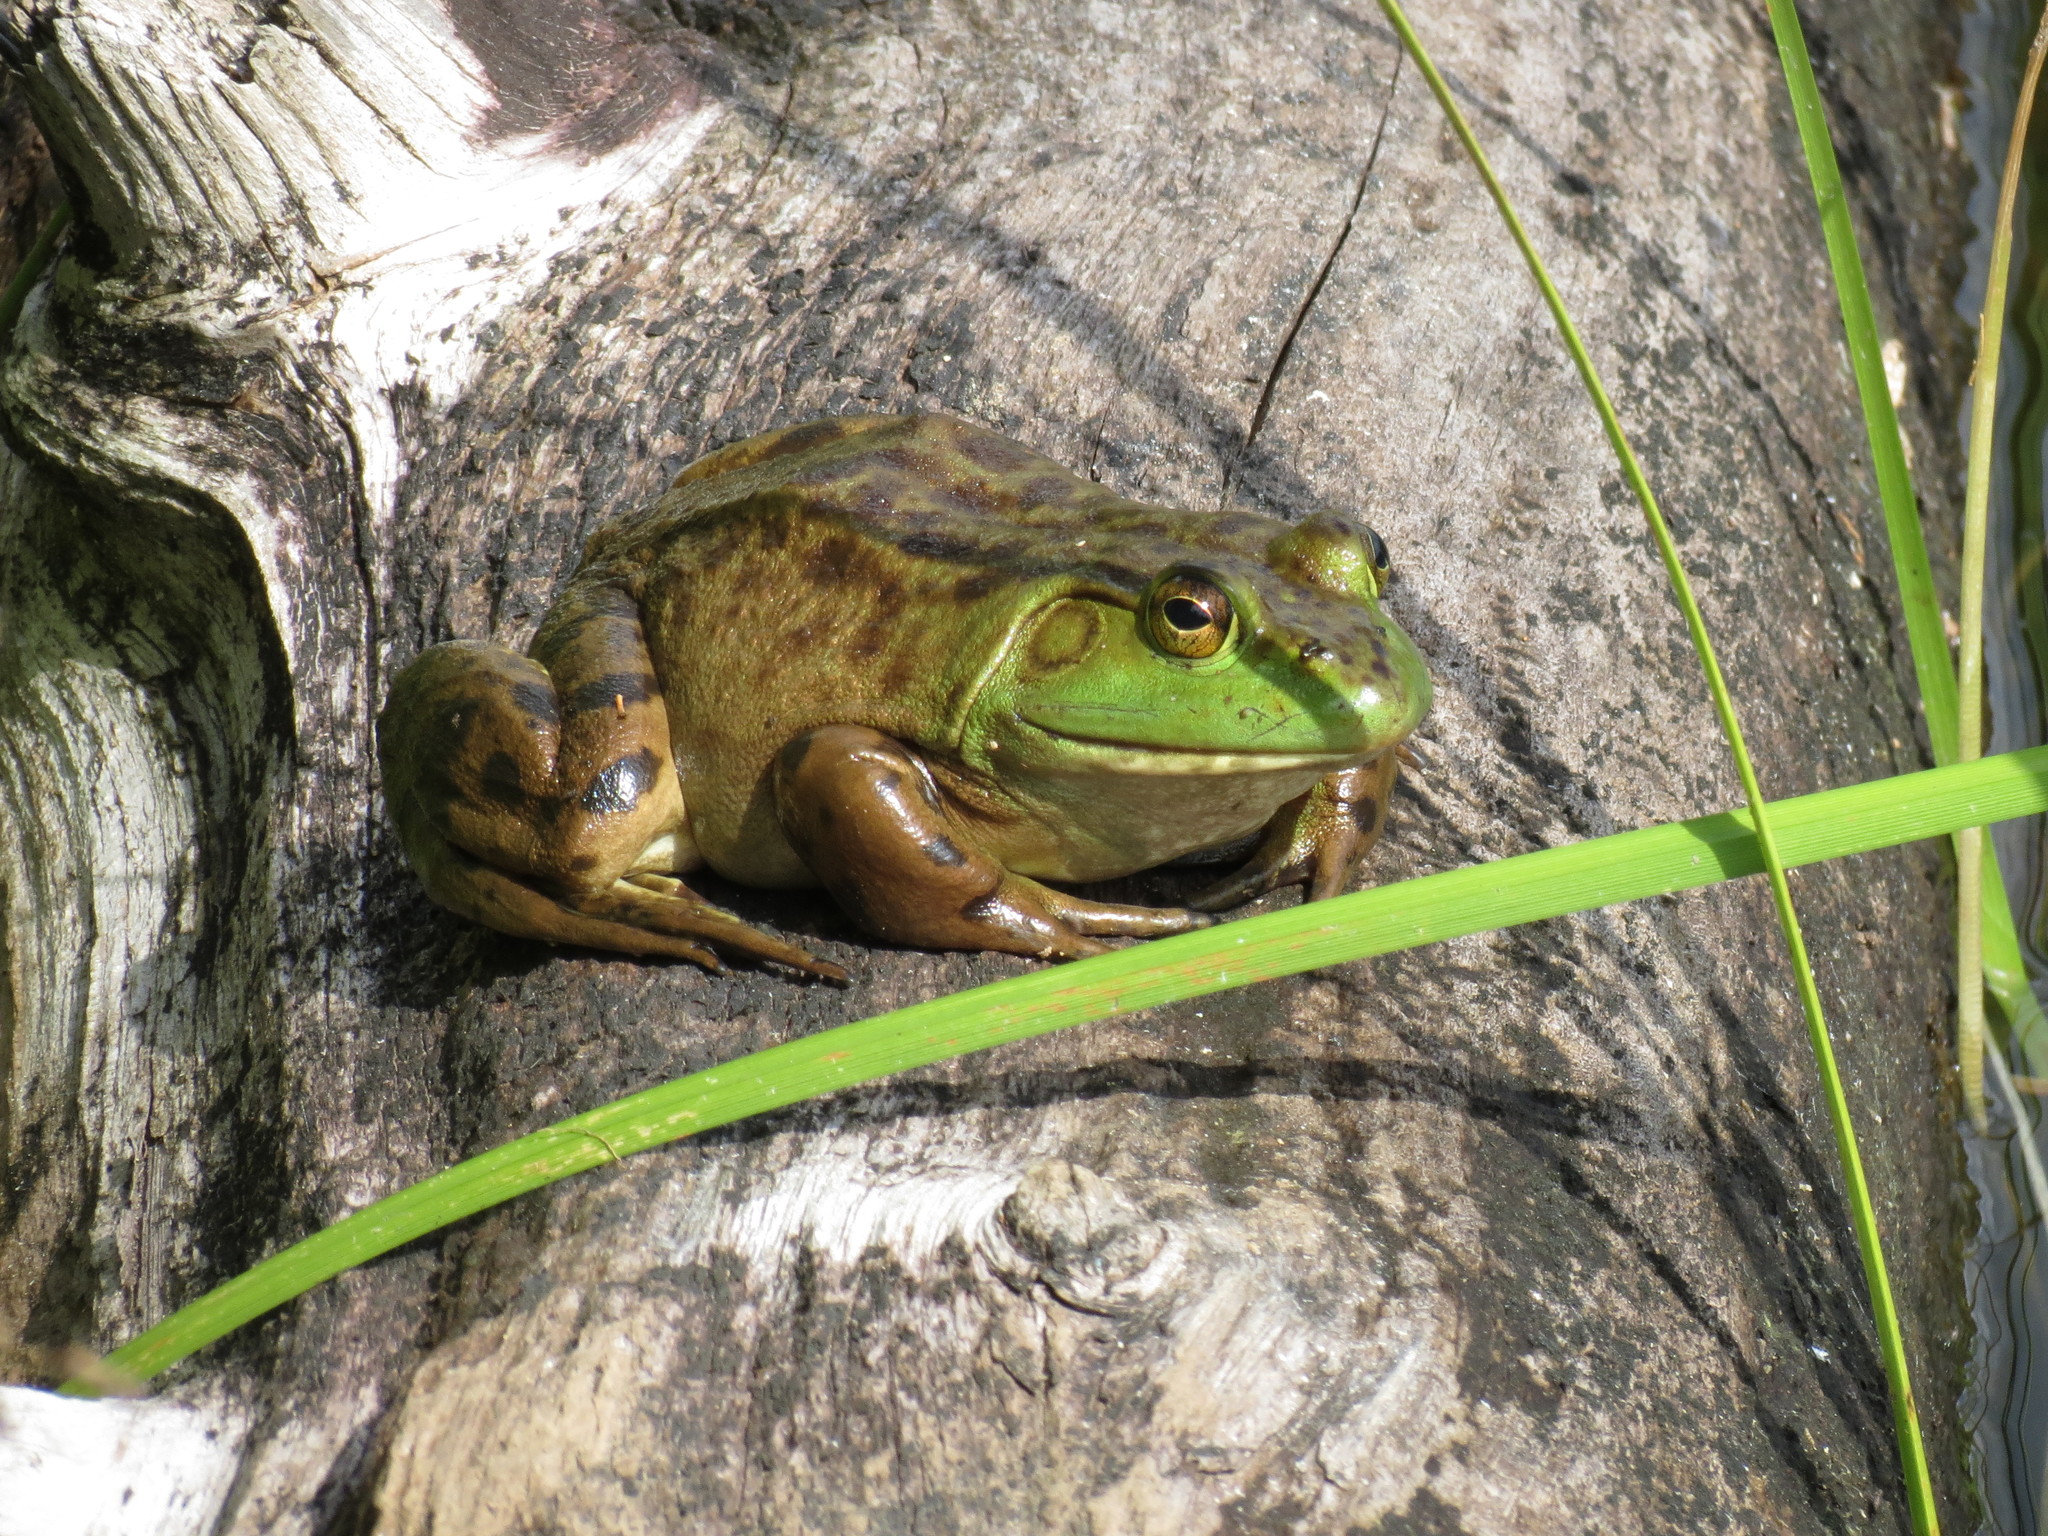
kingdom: Animalia
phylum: Chordata
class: Amphibia
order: Anura
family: Ranidae
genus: Lithobates
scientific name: Lithobates catesbeianus
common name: American bullfrog
